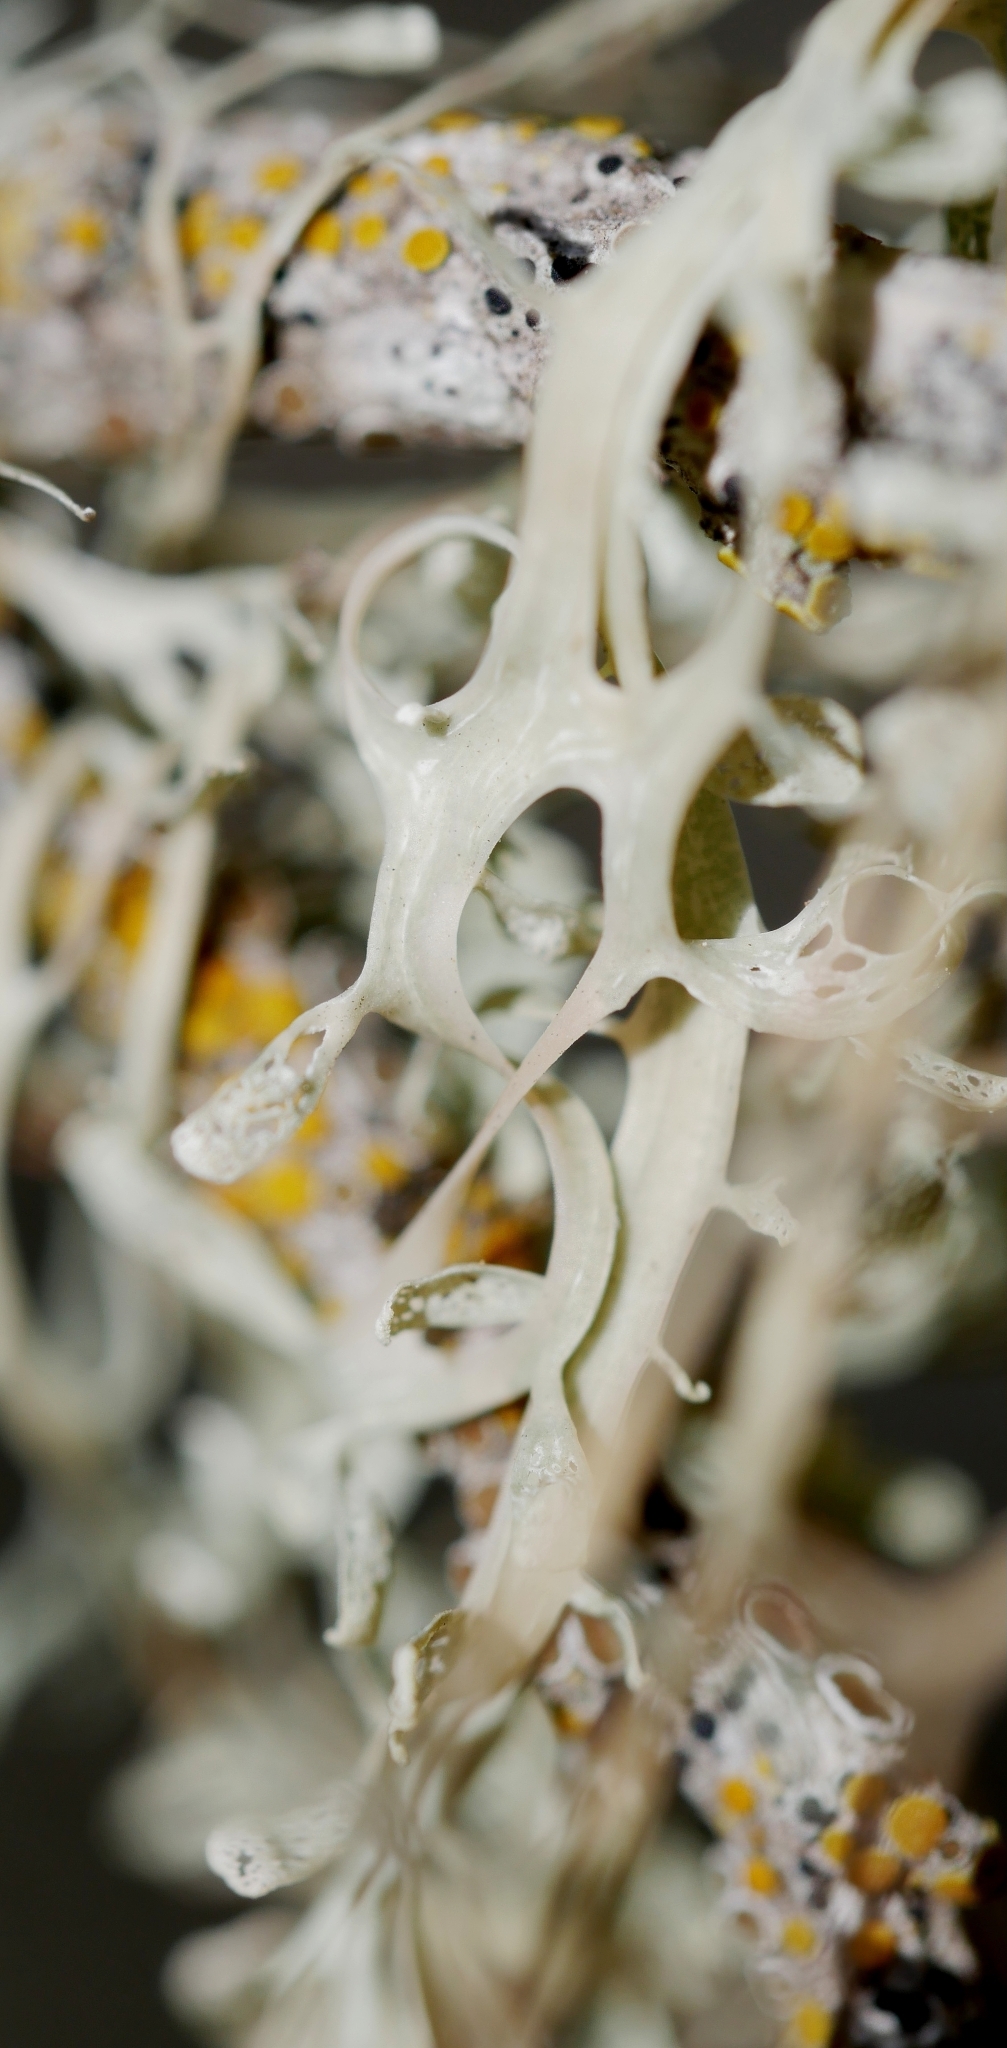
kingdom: Fungi
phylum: Ascomycota
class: Lecanoromycetes
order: Lecanorales
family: Ramalinaceae
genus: Ramalina
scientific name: Ramalina menziesii
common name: Lace lichen
